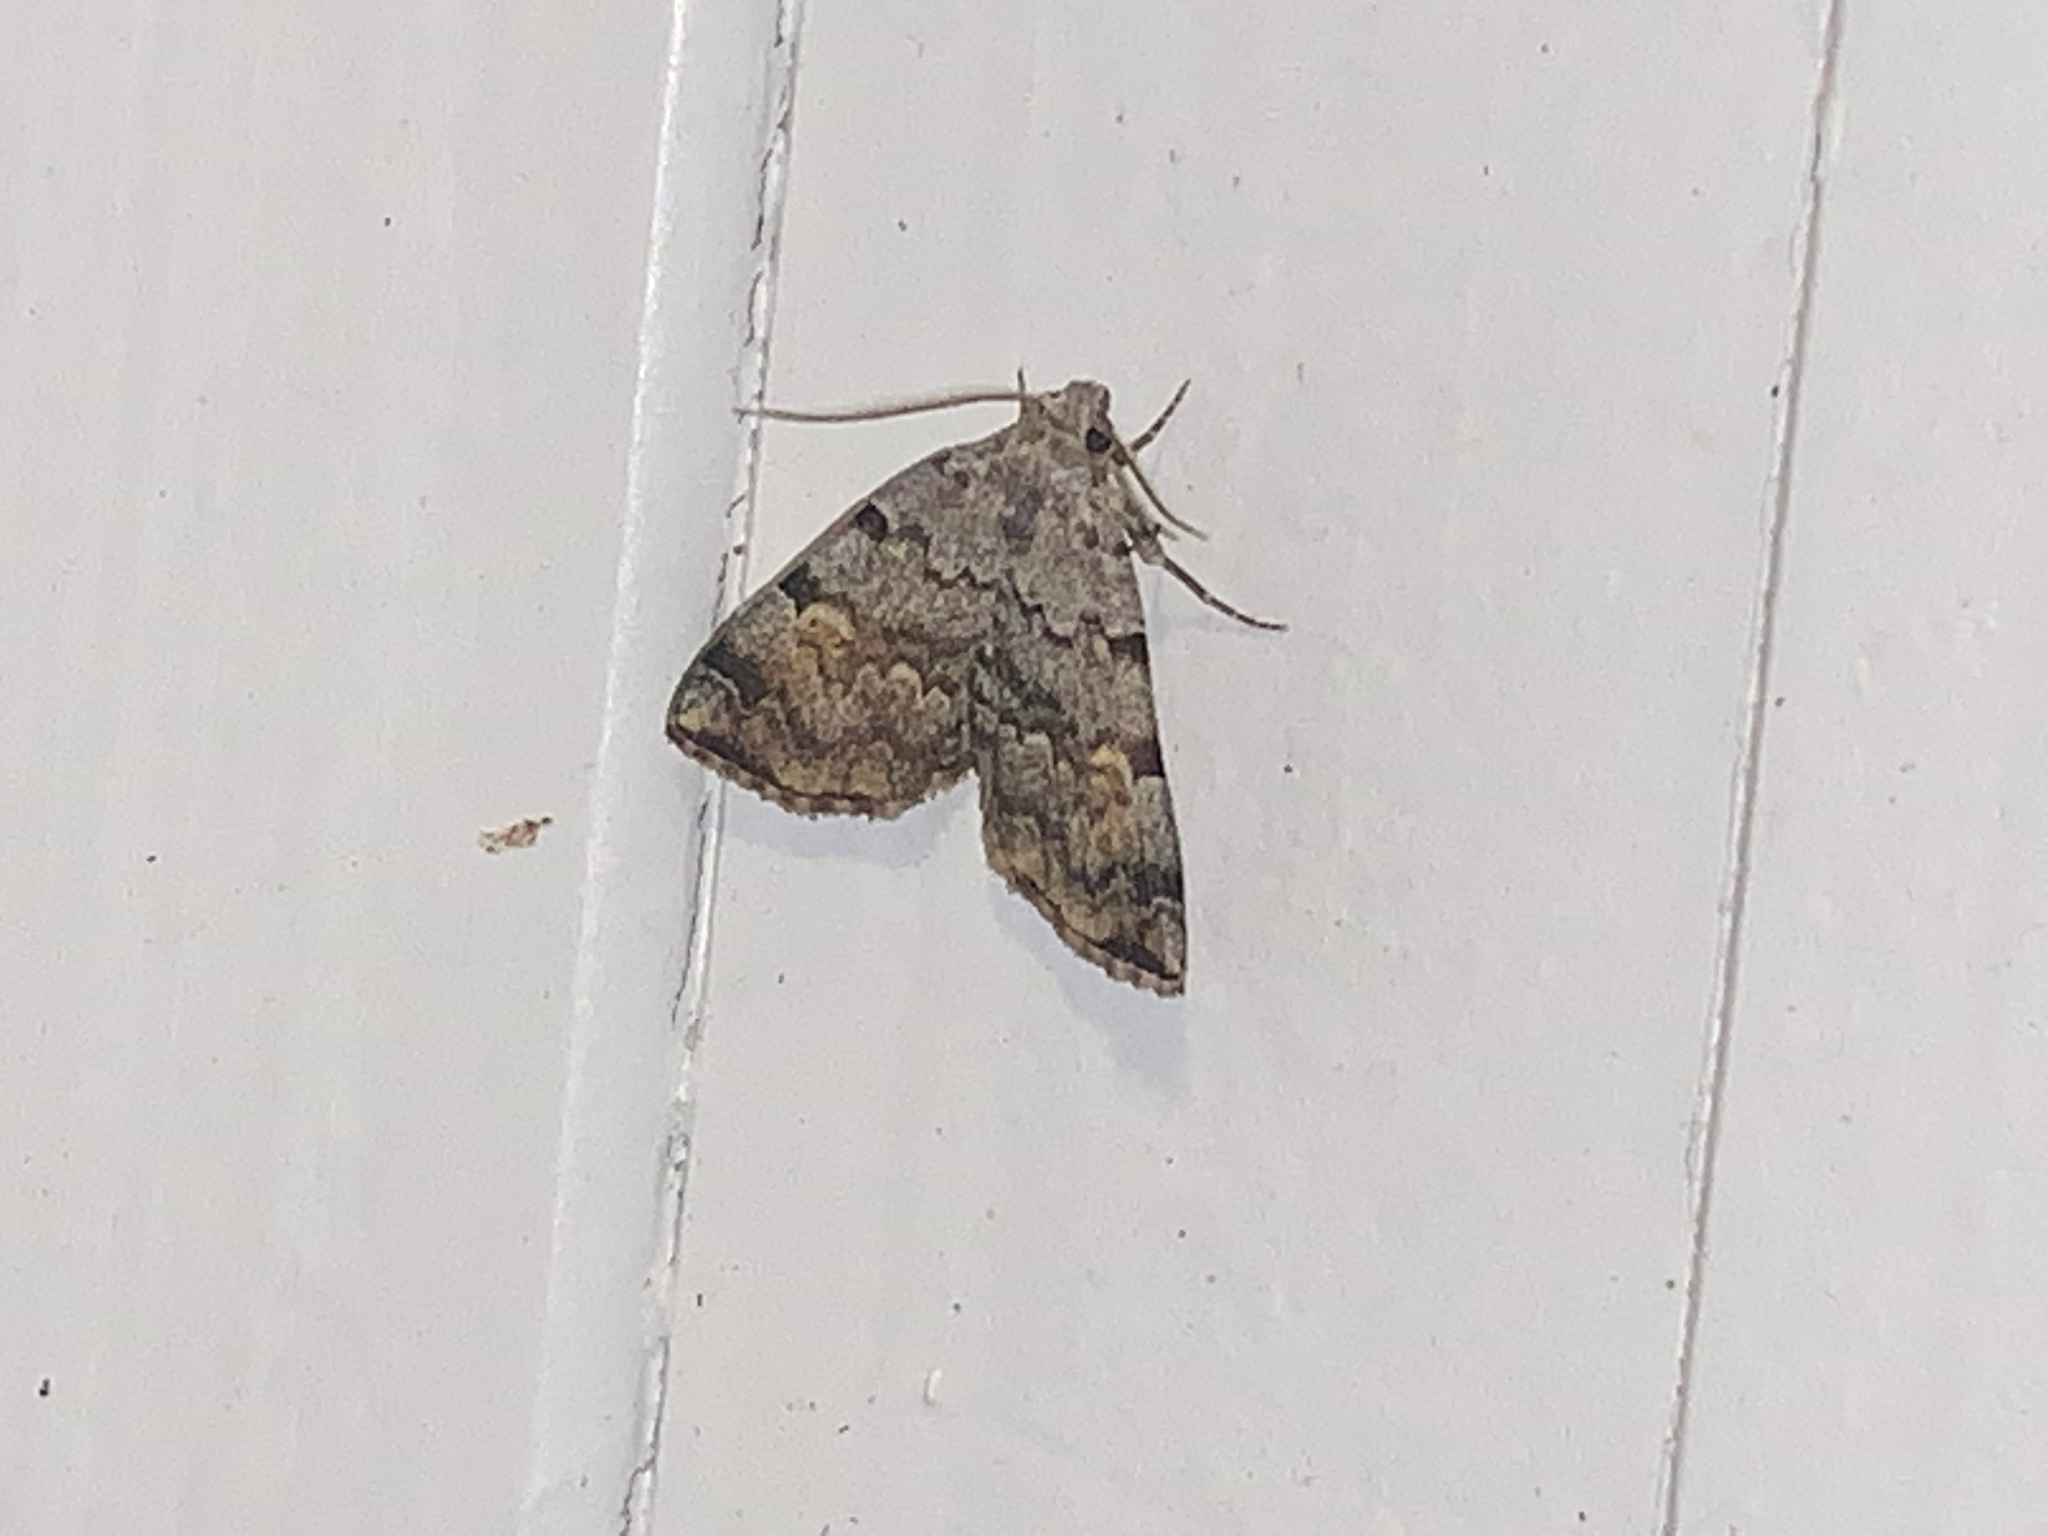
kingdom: Animalia
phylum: Arthropoda
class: Insecta
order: Lepidoptera
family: Erebidae
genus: Idia
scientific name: Idia americalis
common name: American idia moth
